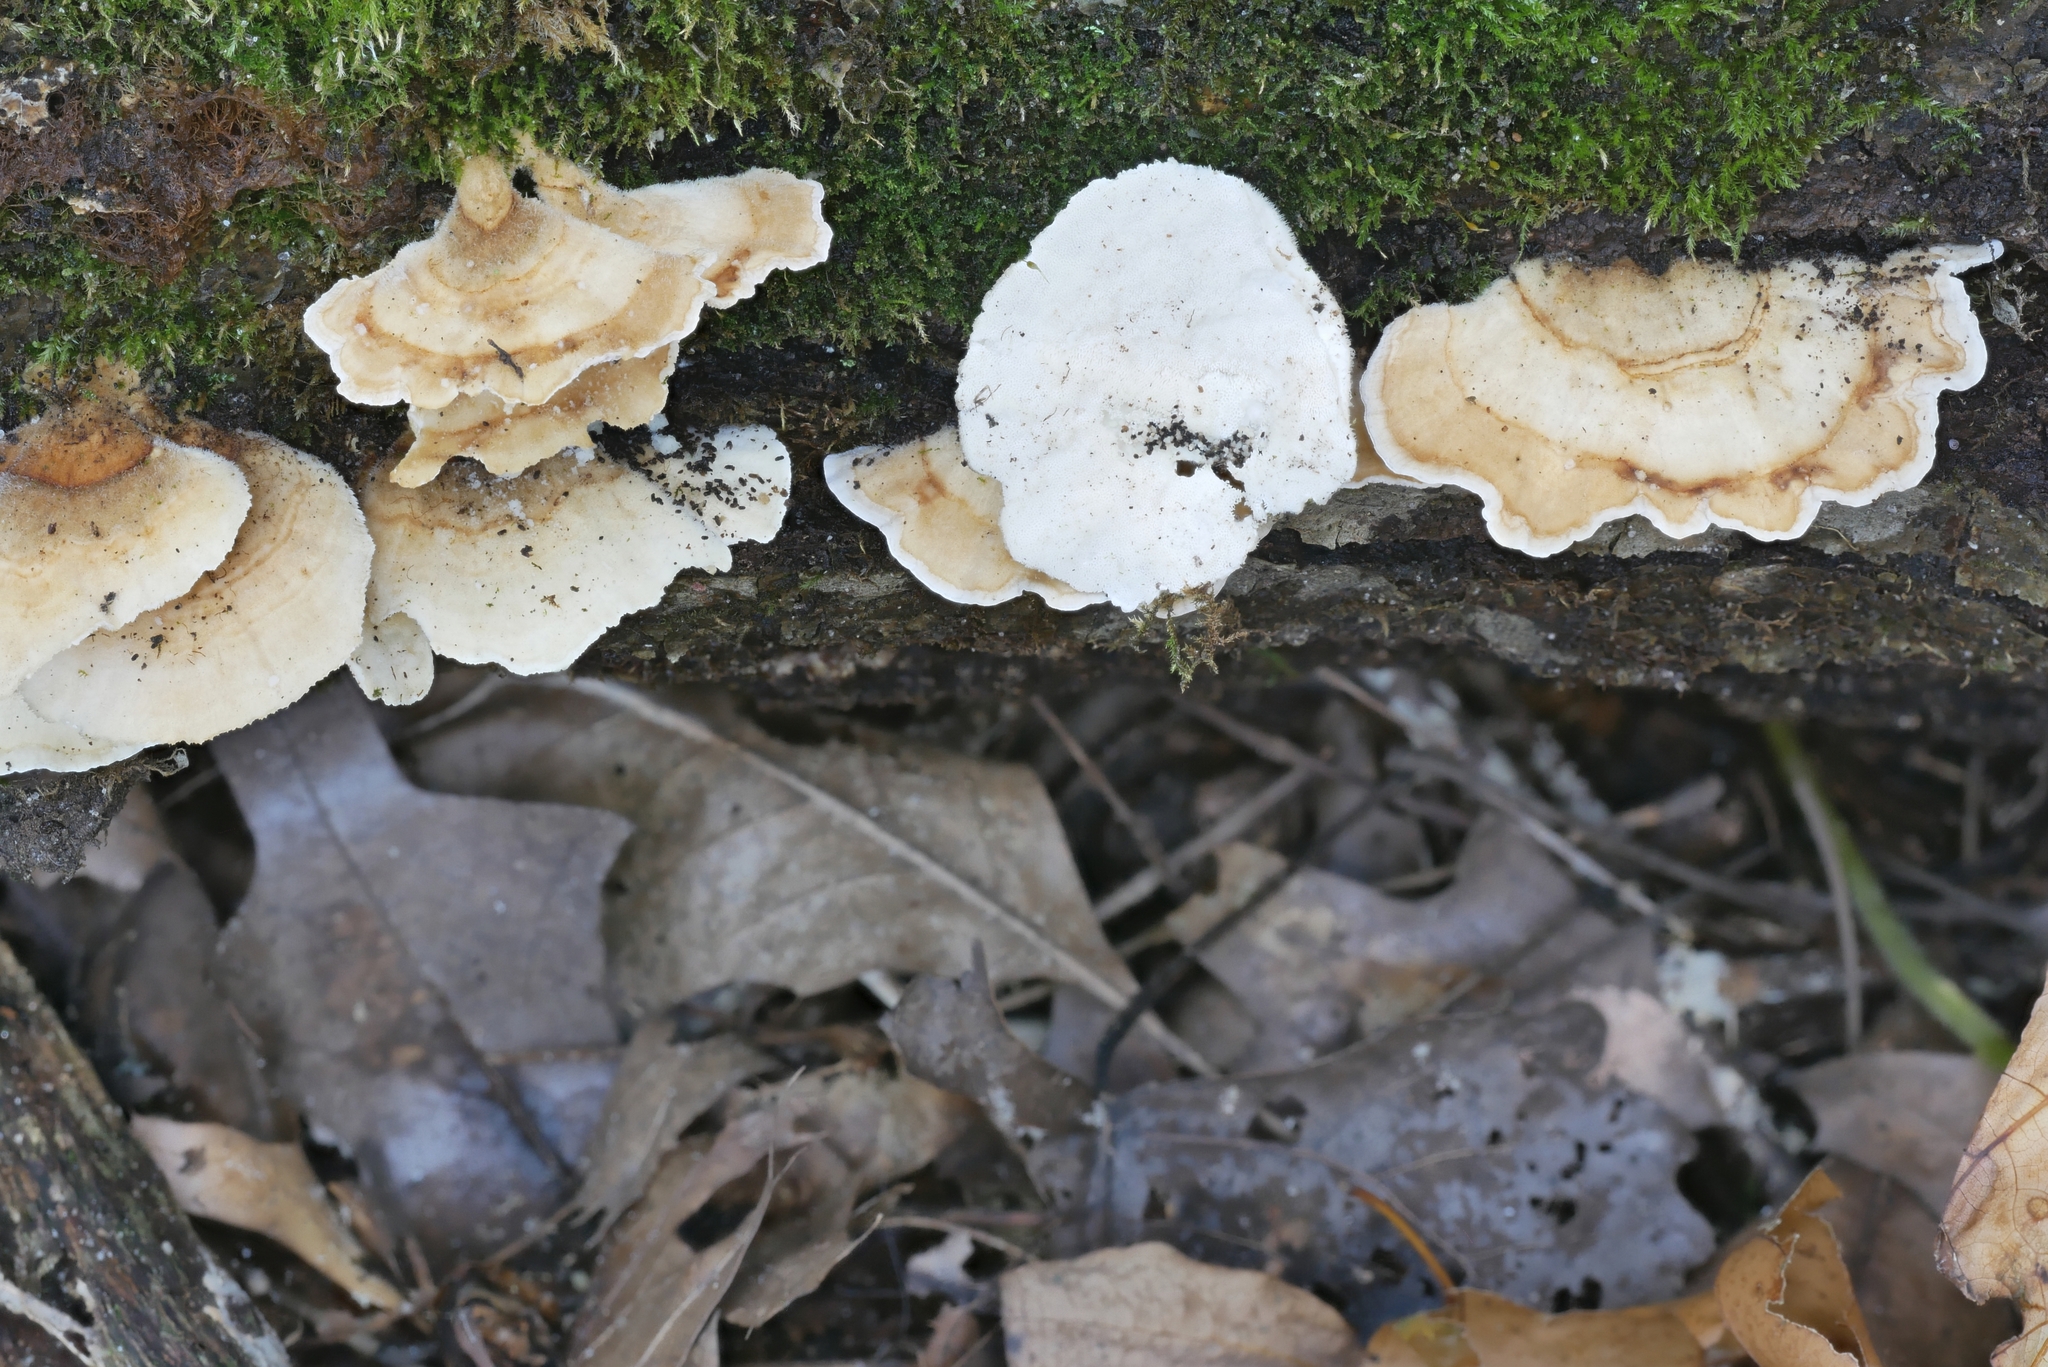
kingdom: Fungi
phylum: Basidiomycota
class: Agaricomycetes
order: Polyporales
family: Polyporaceae
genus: Trametes
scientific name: Trametes versicolor
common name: Turkeytail
